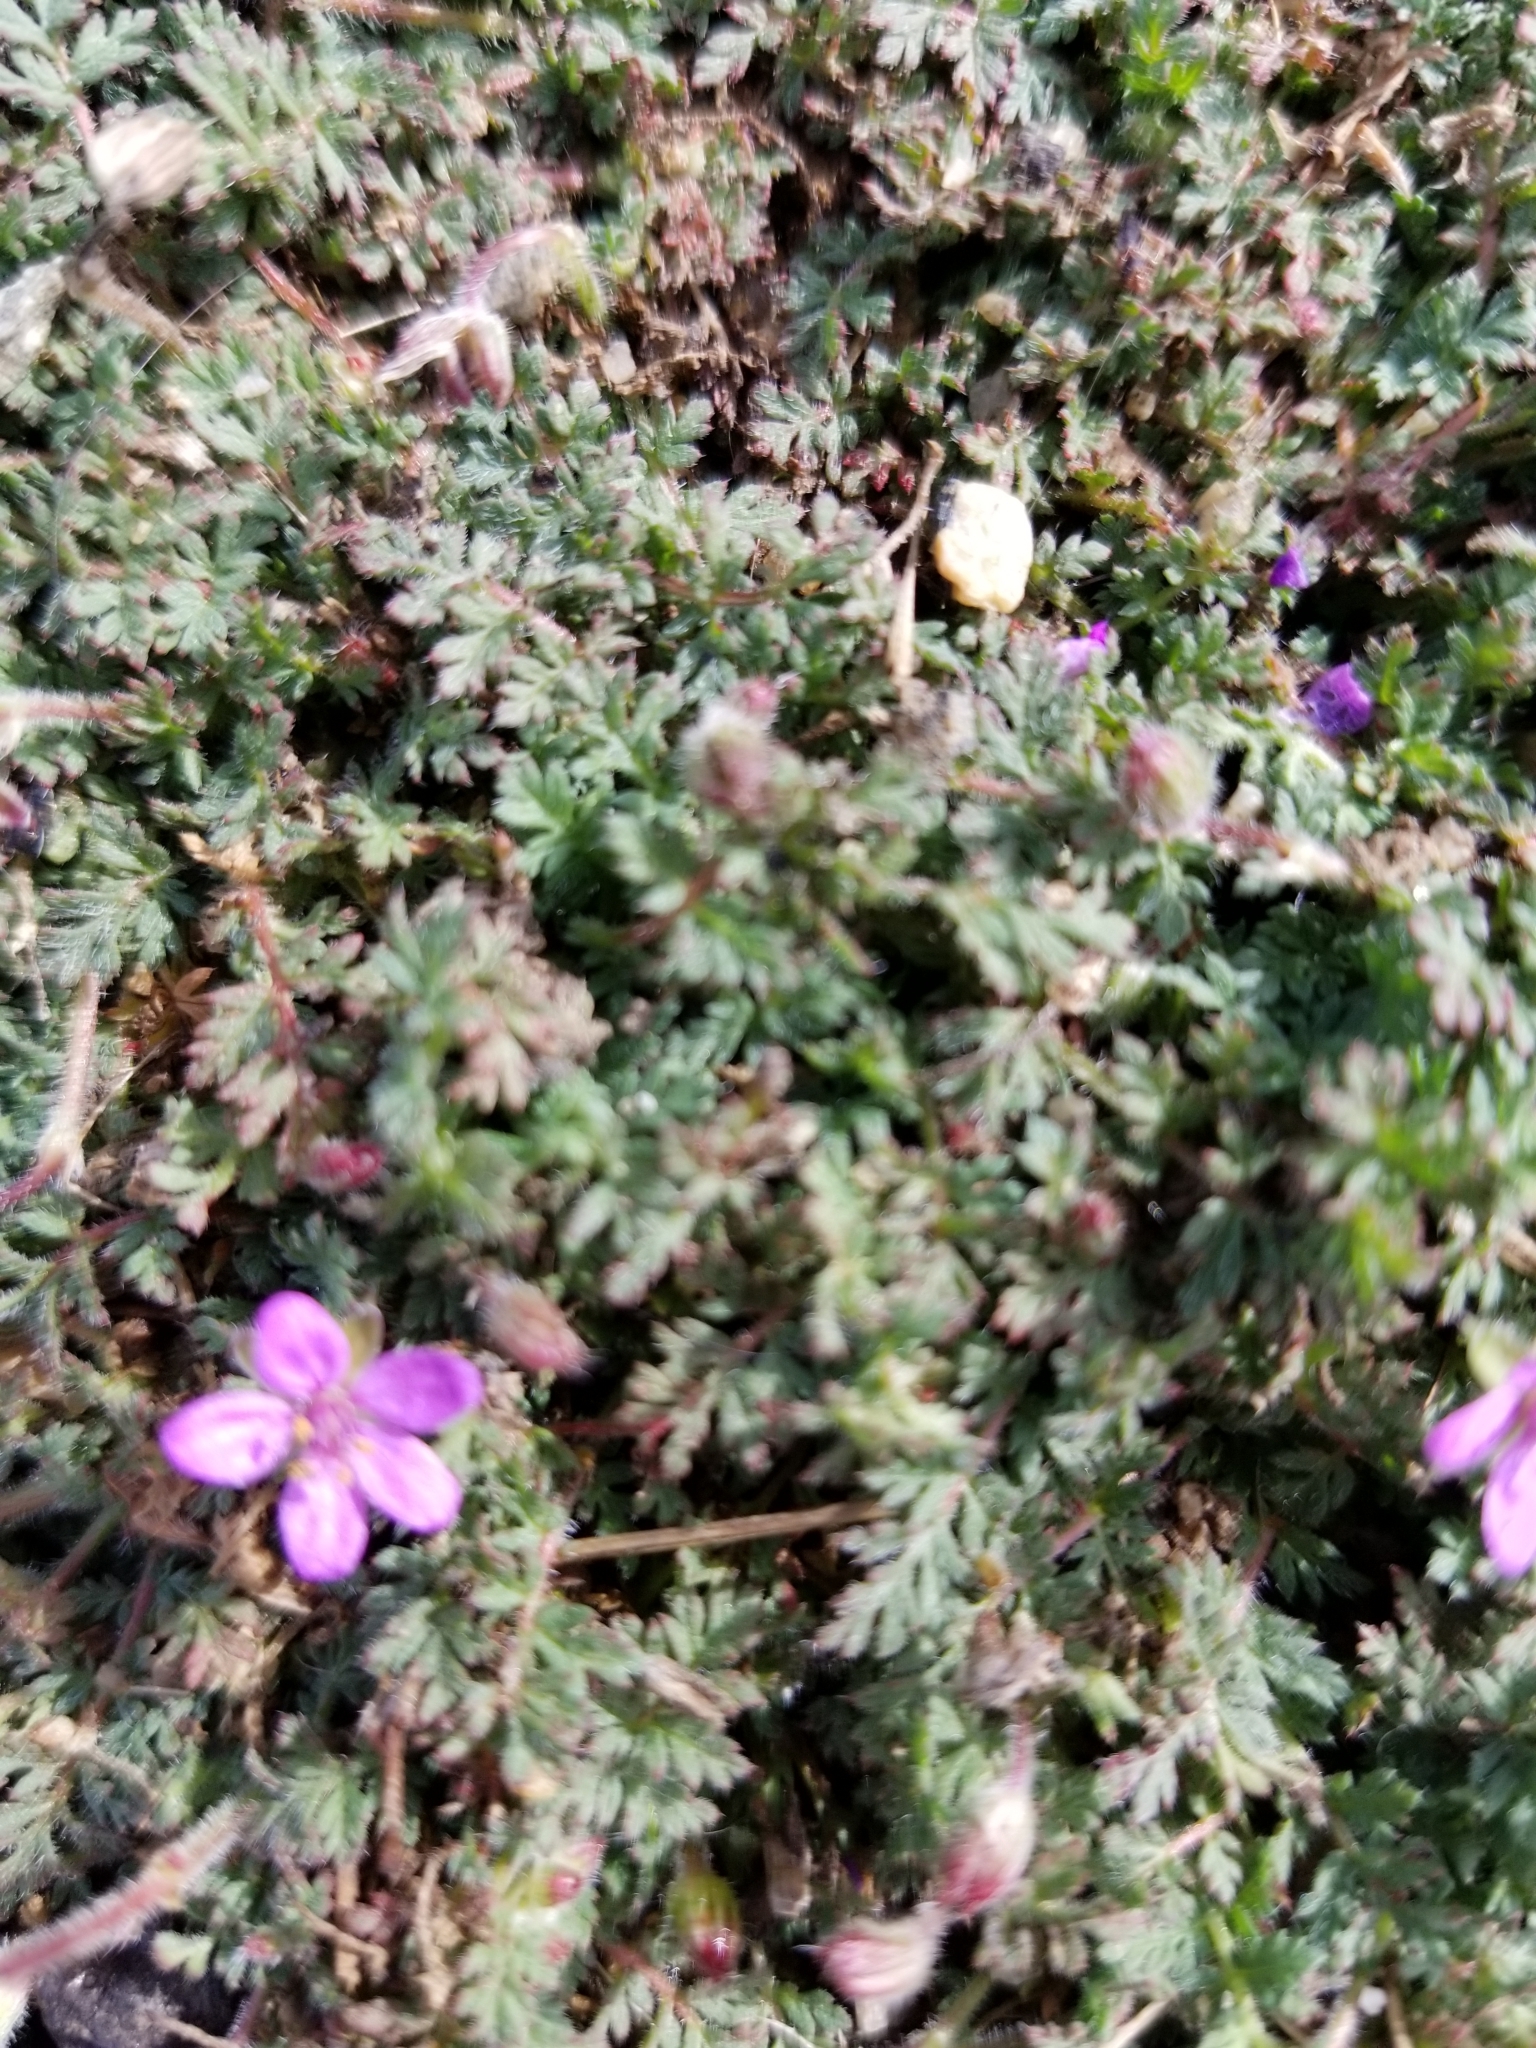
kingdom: Plantae
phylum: Tracheophyta
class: Magnoliopsida
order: Geraniales
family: Geraniaceae
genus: Erodium
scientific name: Erodium cicutarium
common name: Common stork's-bill
